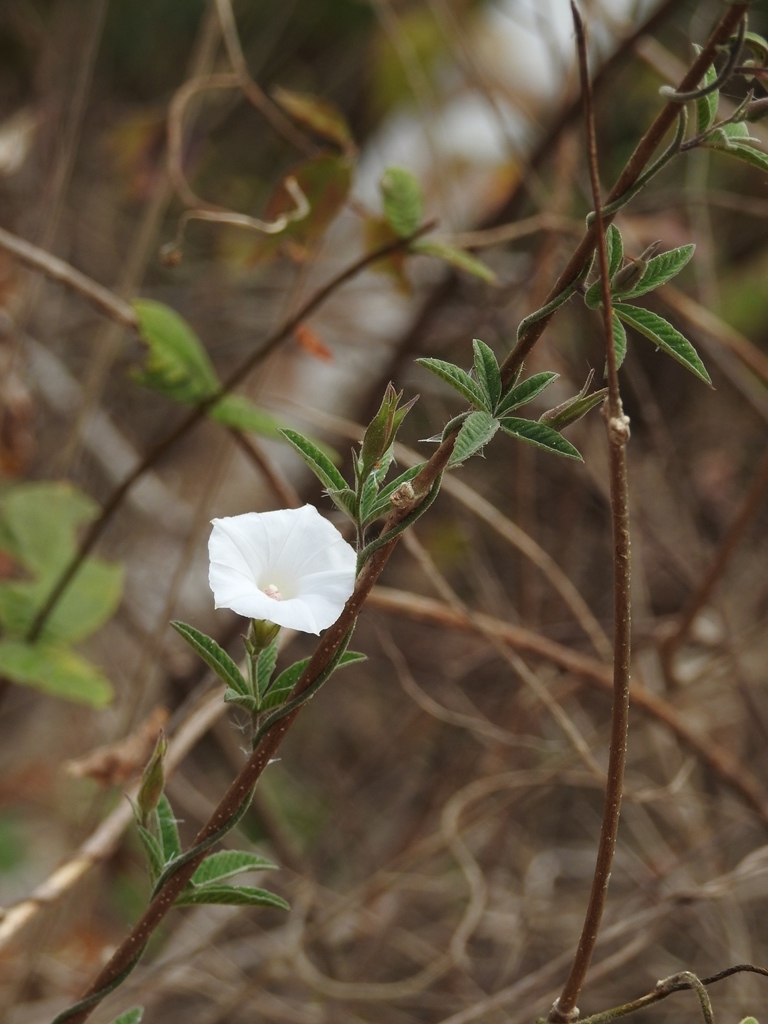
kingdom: Plantae
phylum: Tracheophyta
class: Magnoliopsida
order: Solanales
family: Convolvulaceae
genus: Distimake
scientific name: Distimake cissoides
